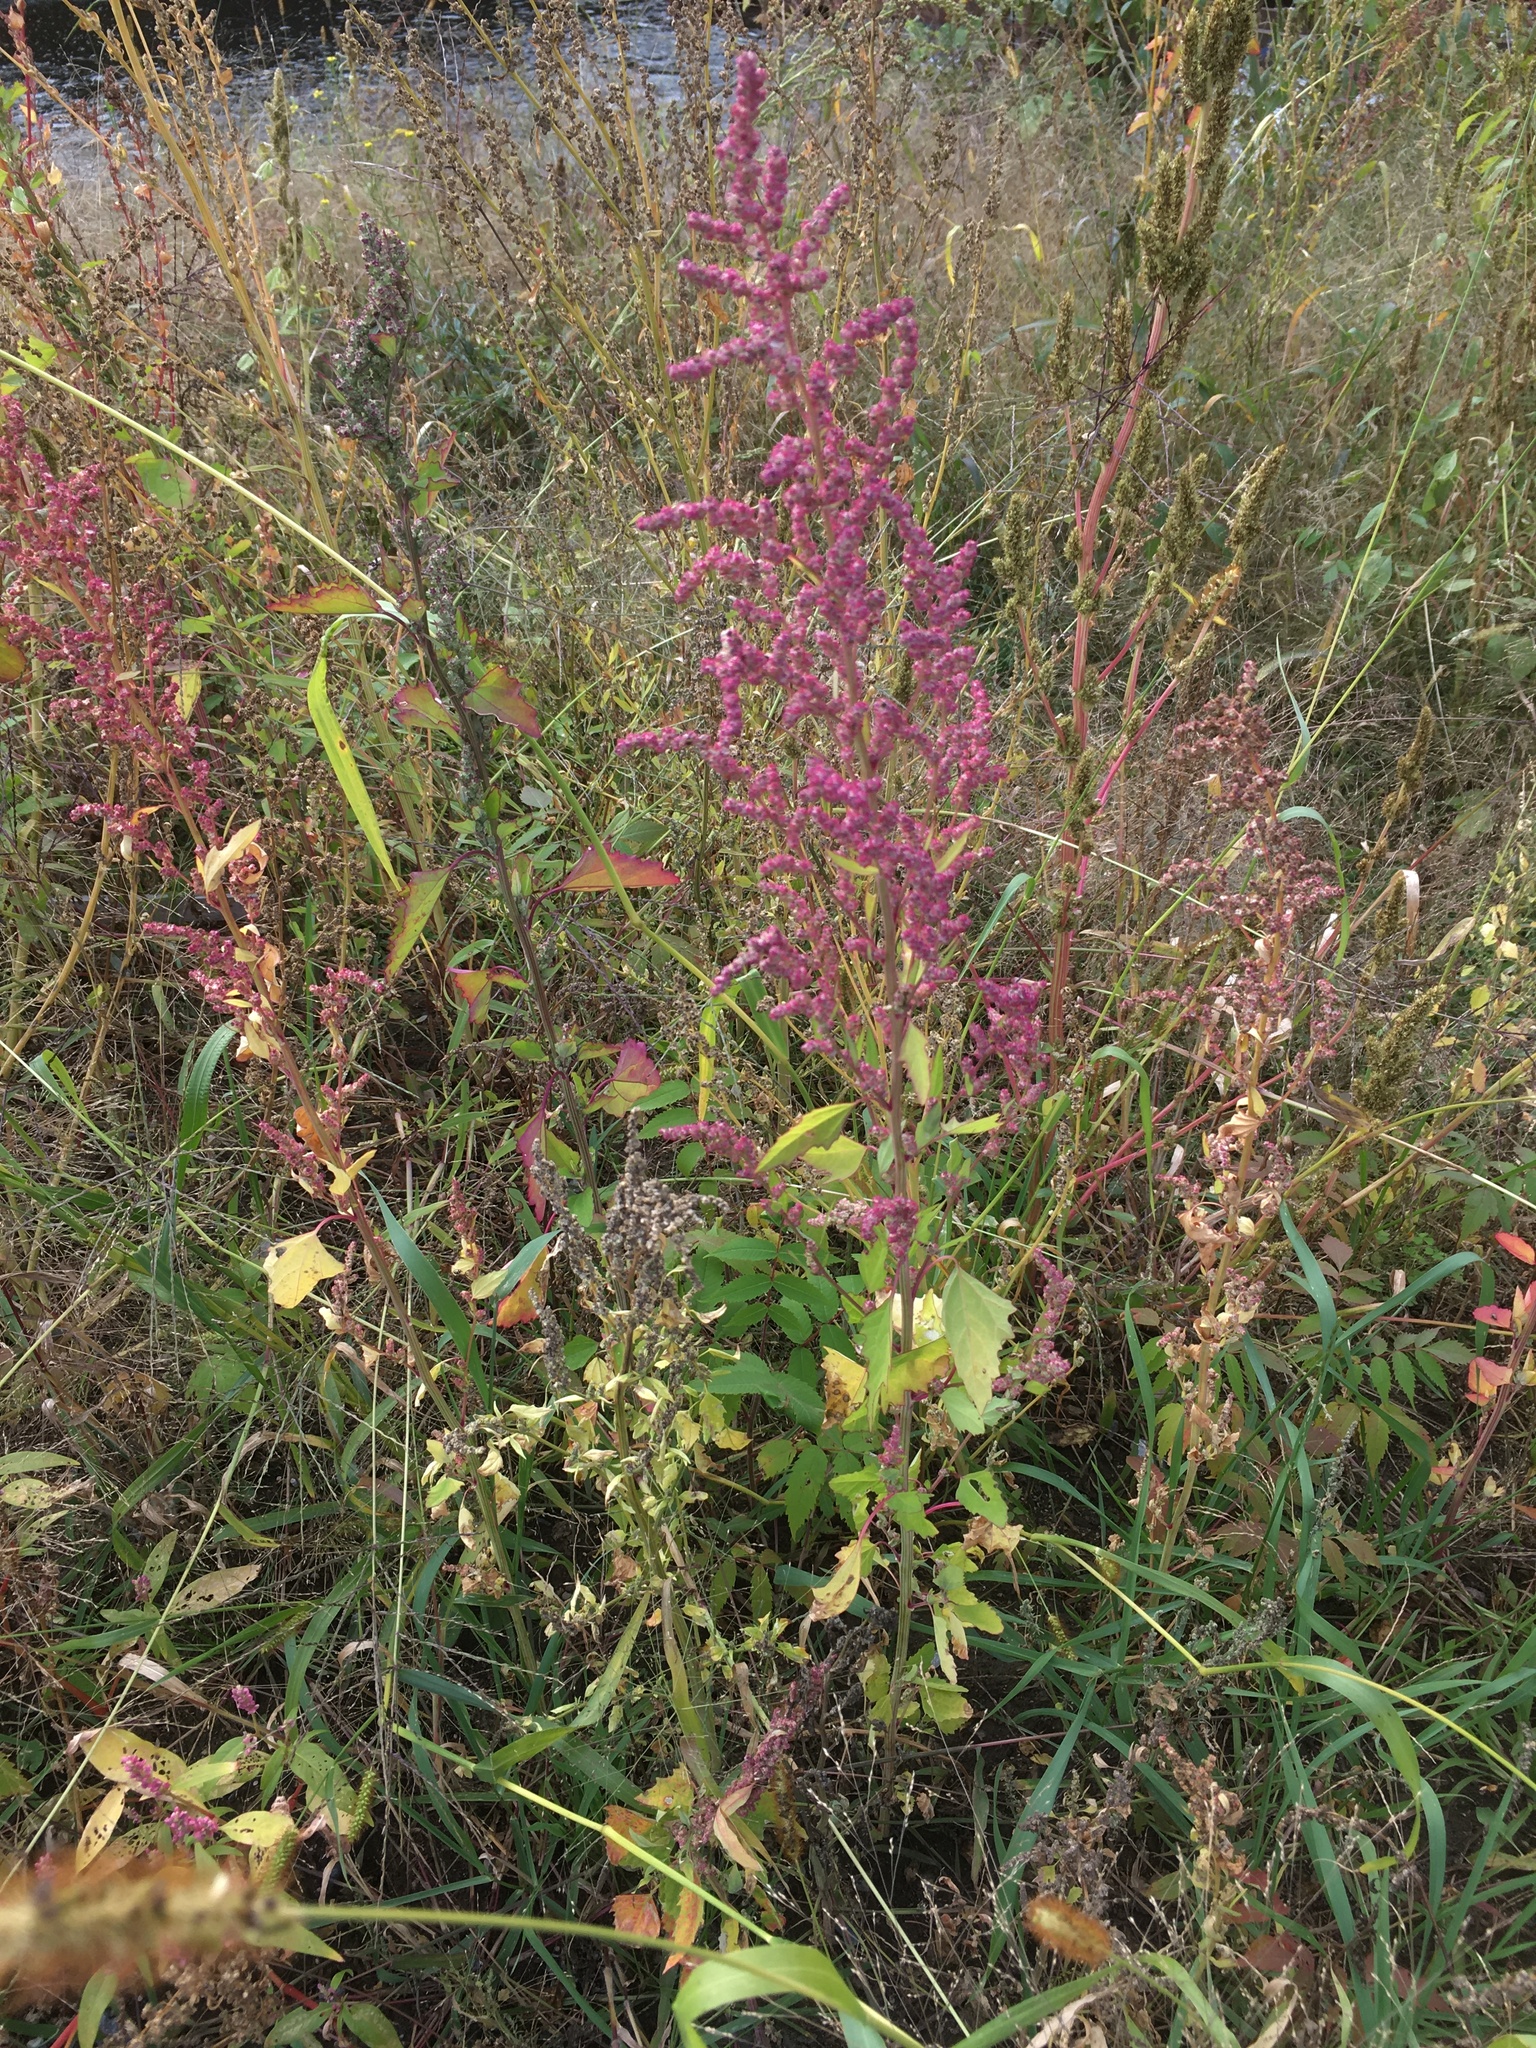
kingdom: Plantae
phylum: Tracheophyta
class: Magnoliopsida
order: Caryophyllales
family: Amaranthaceae
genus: Chenopodium
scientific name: Chenopodium album
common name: Fat-hen
